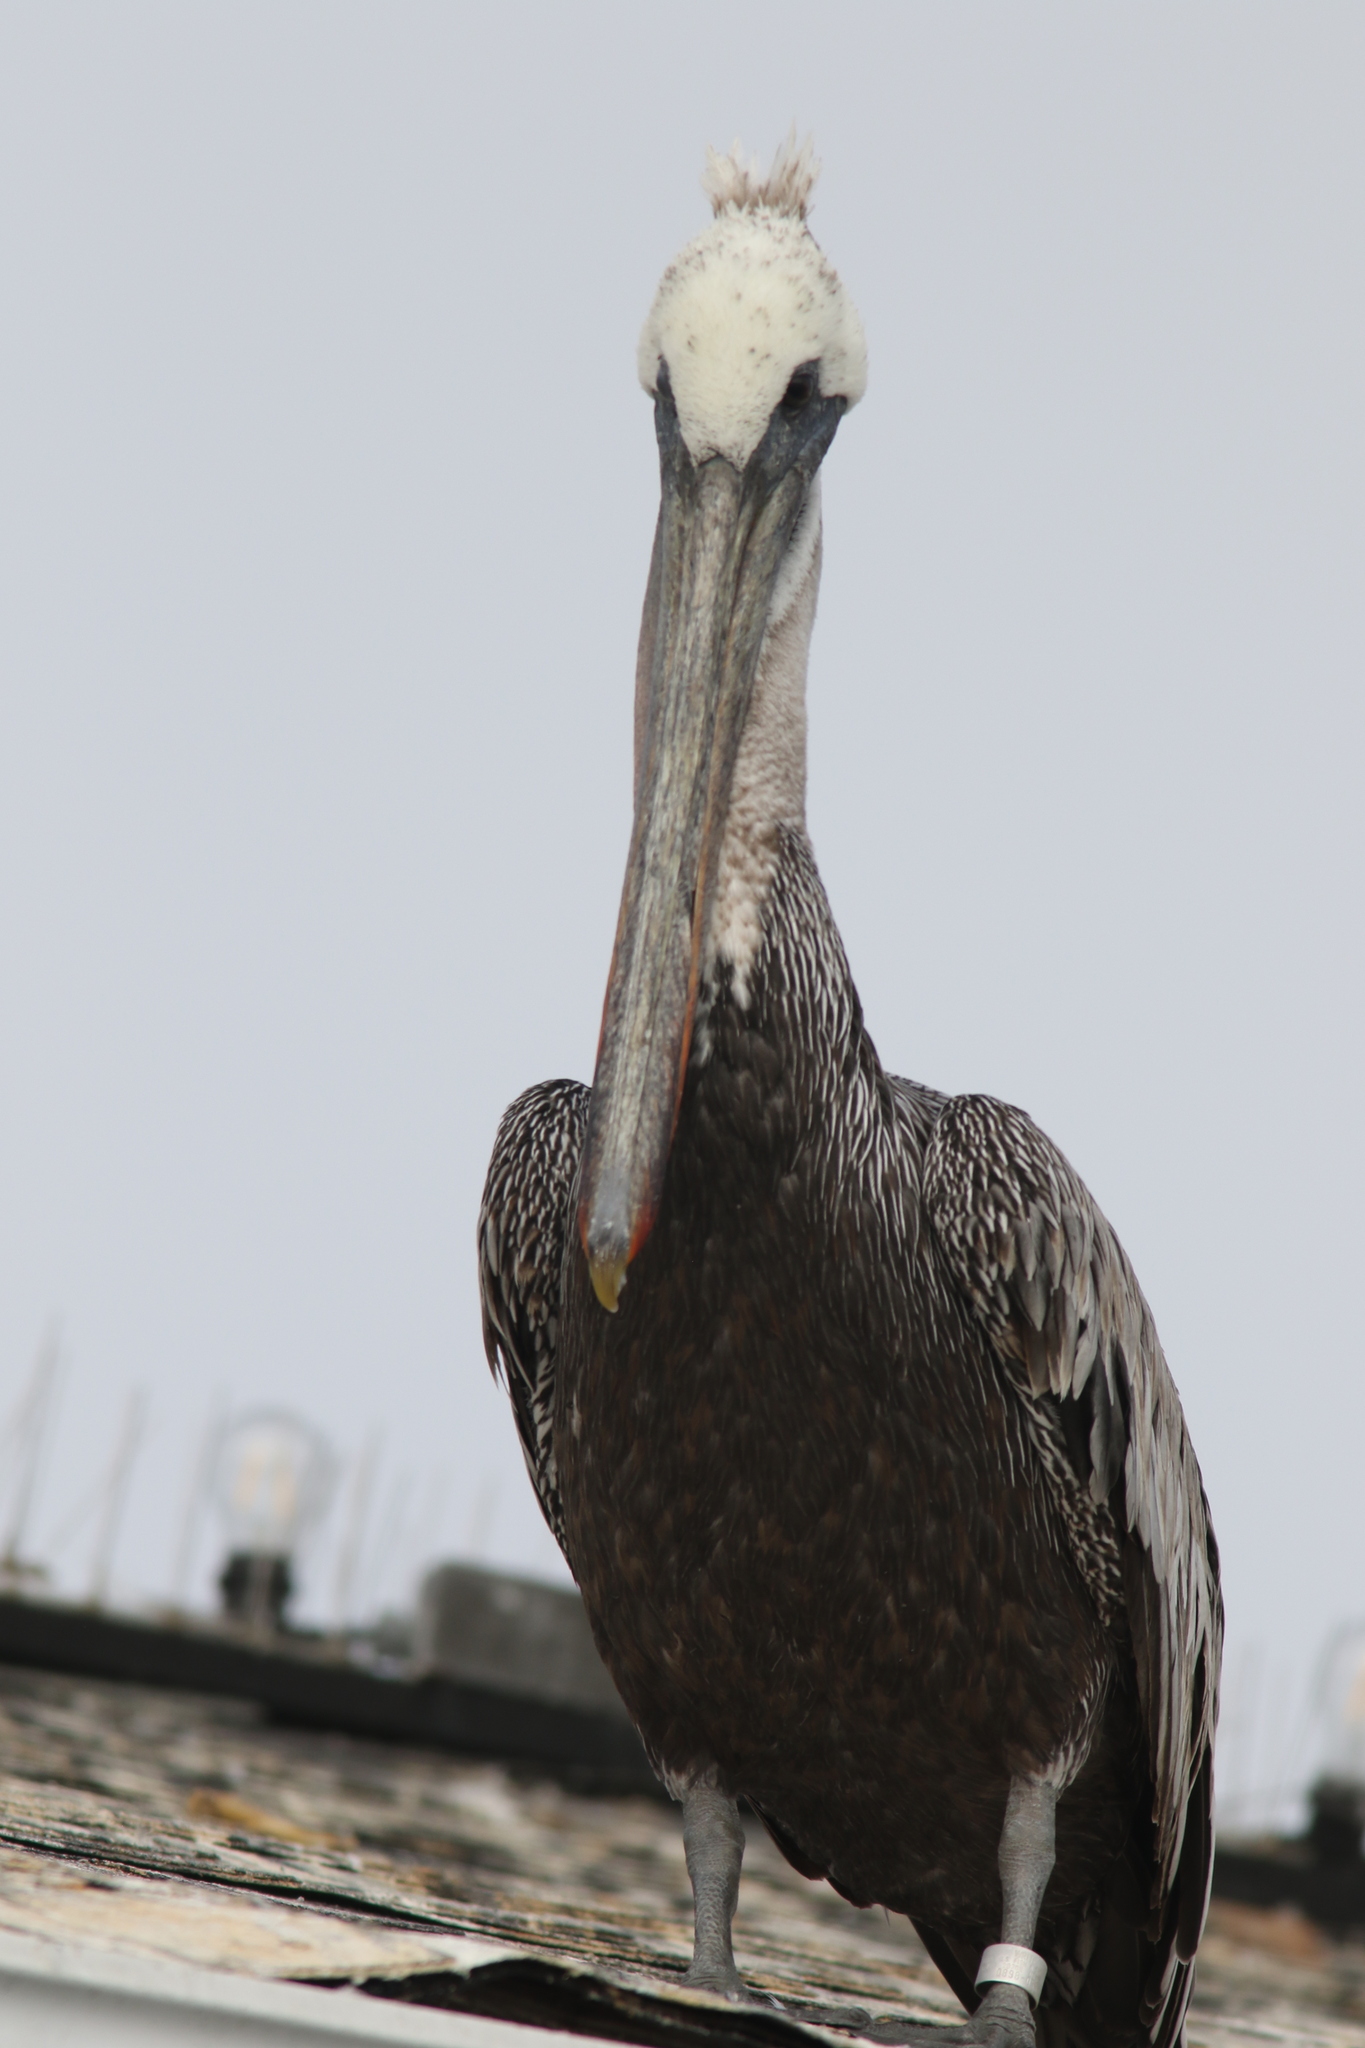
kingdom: Animalia
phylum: Chordata
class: Aves
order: Pelecaniformes
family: Pelecanidae
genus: Pelecanus
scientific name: Pelecanus occidentalis
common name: Brown pelican
